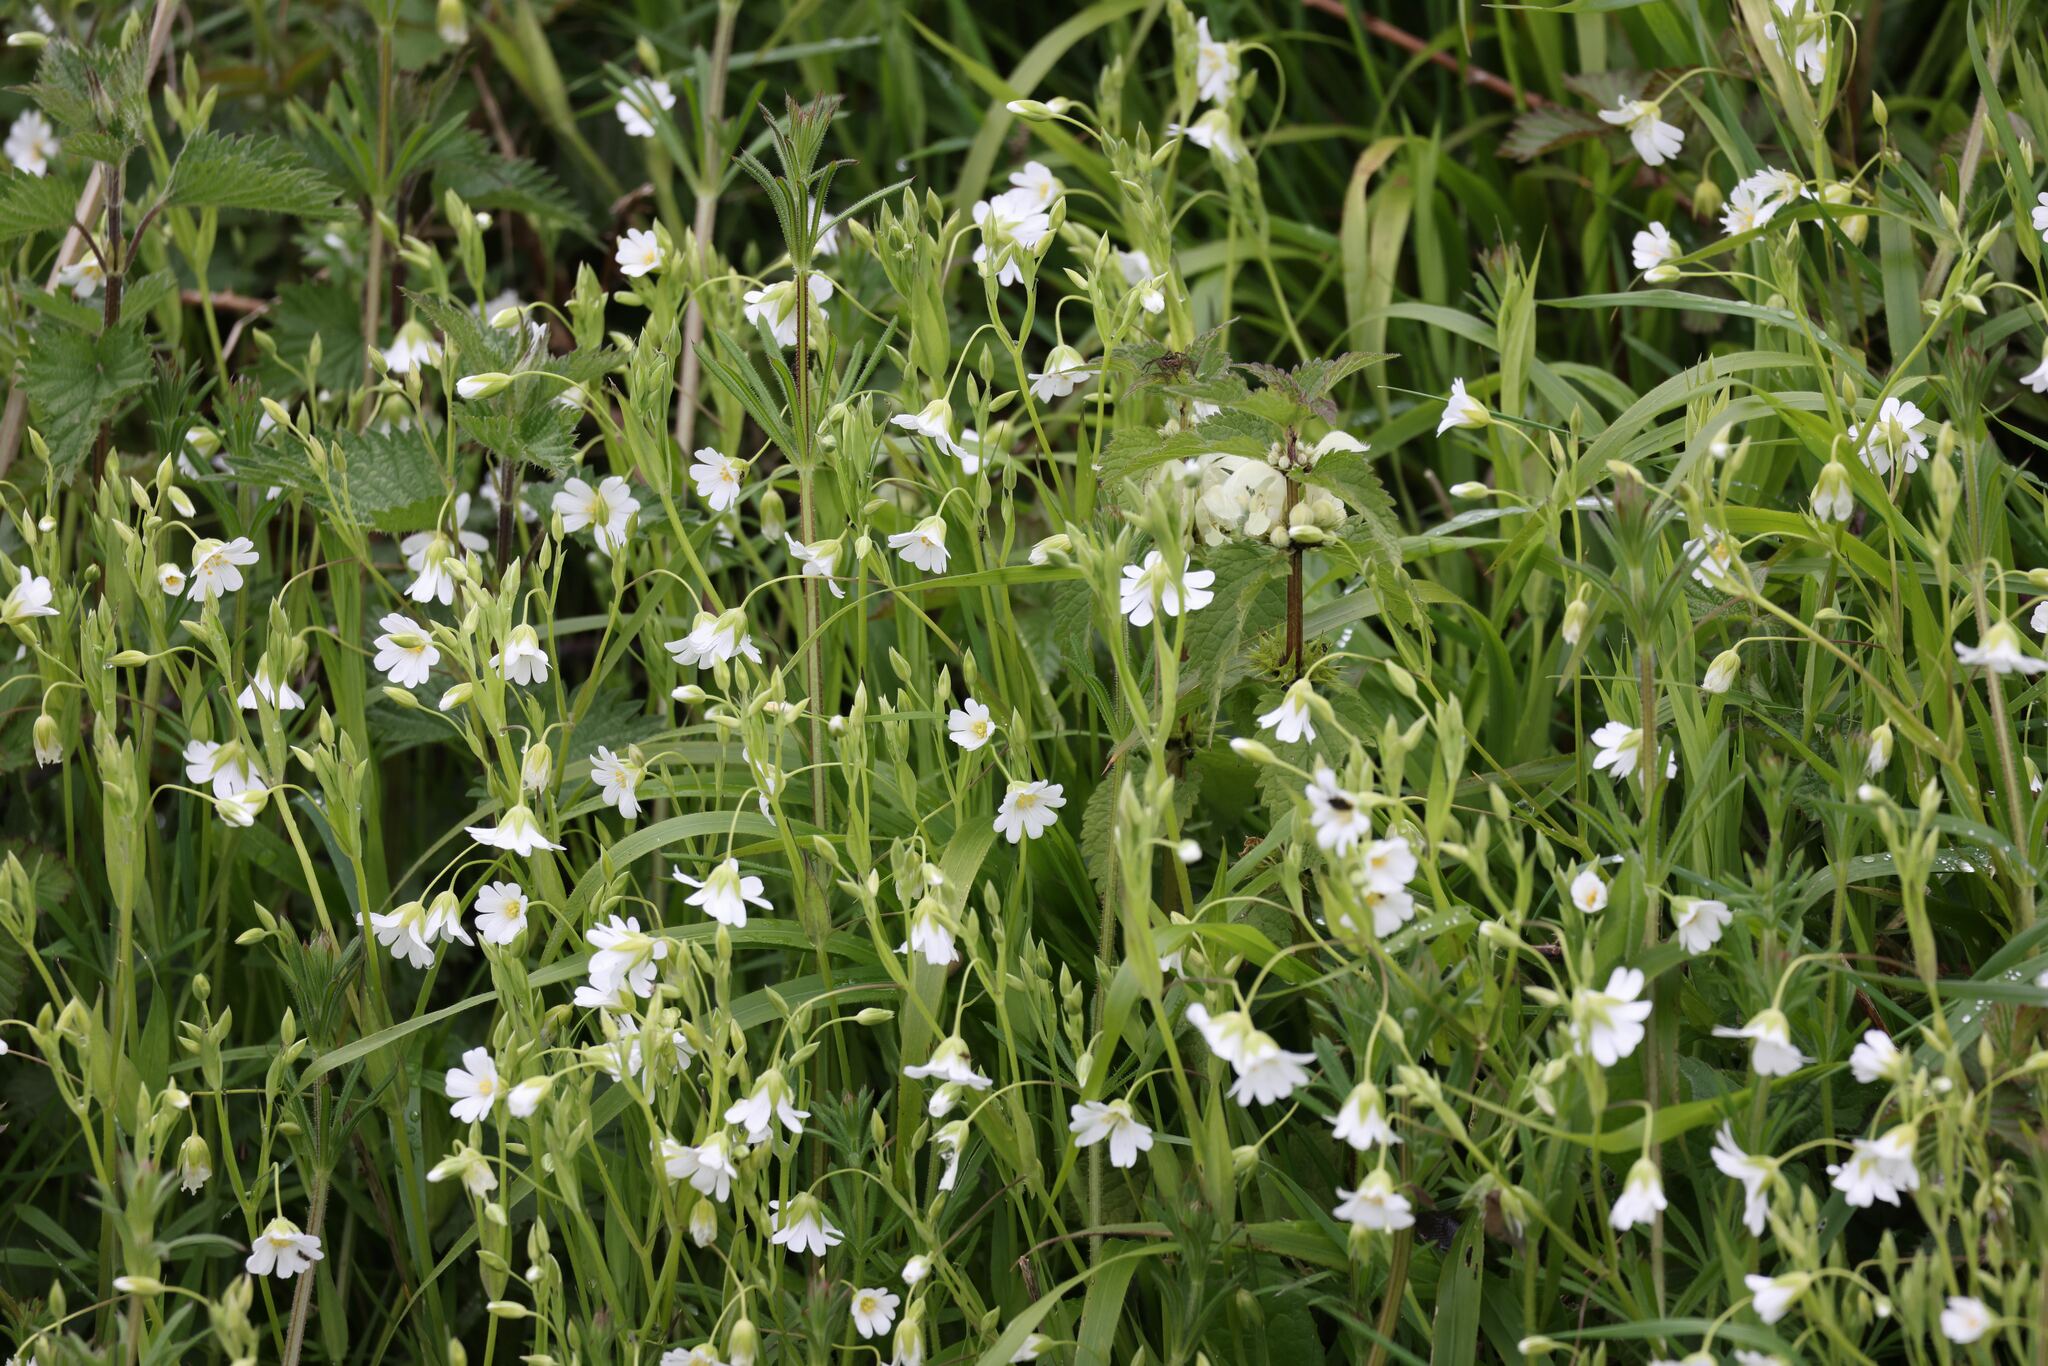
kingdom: Plantae
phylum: Tracheophyta
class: Magnoliopsida
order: Caryophyllales
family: Caryophyllaceae
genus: Rabelera
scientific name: Rabelera holostea
